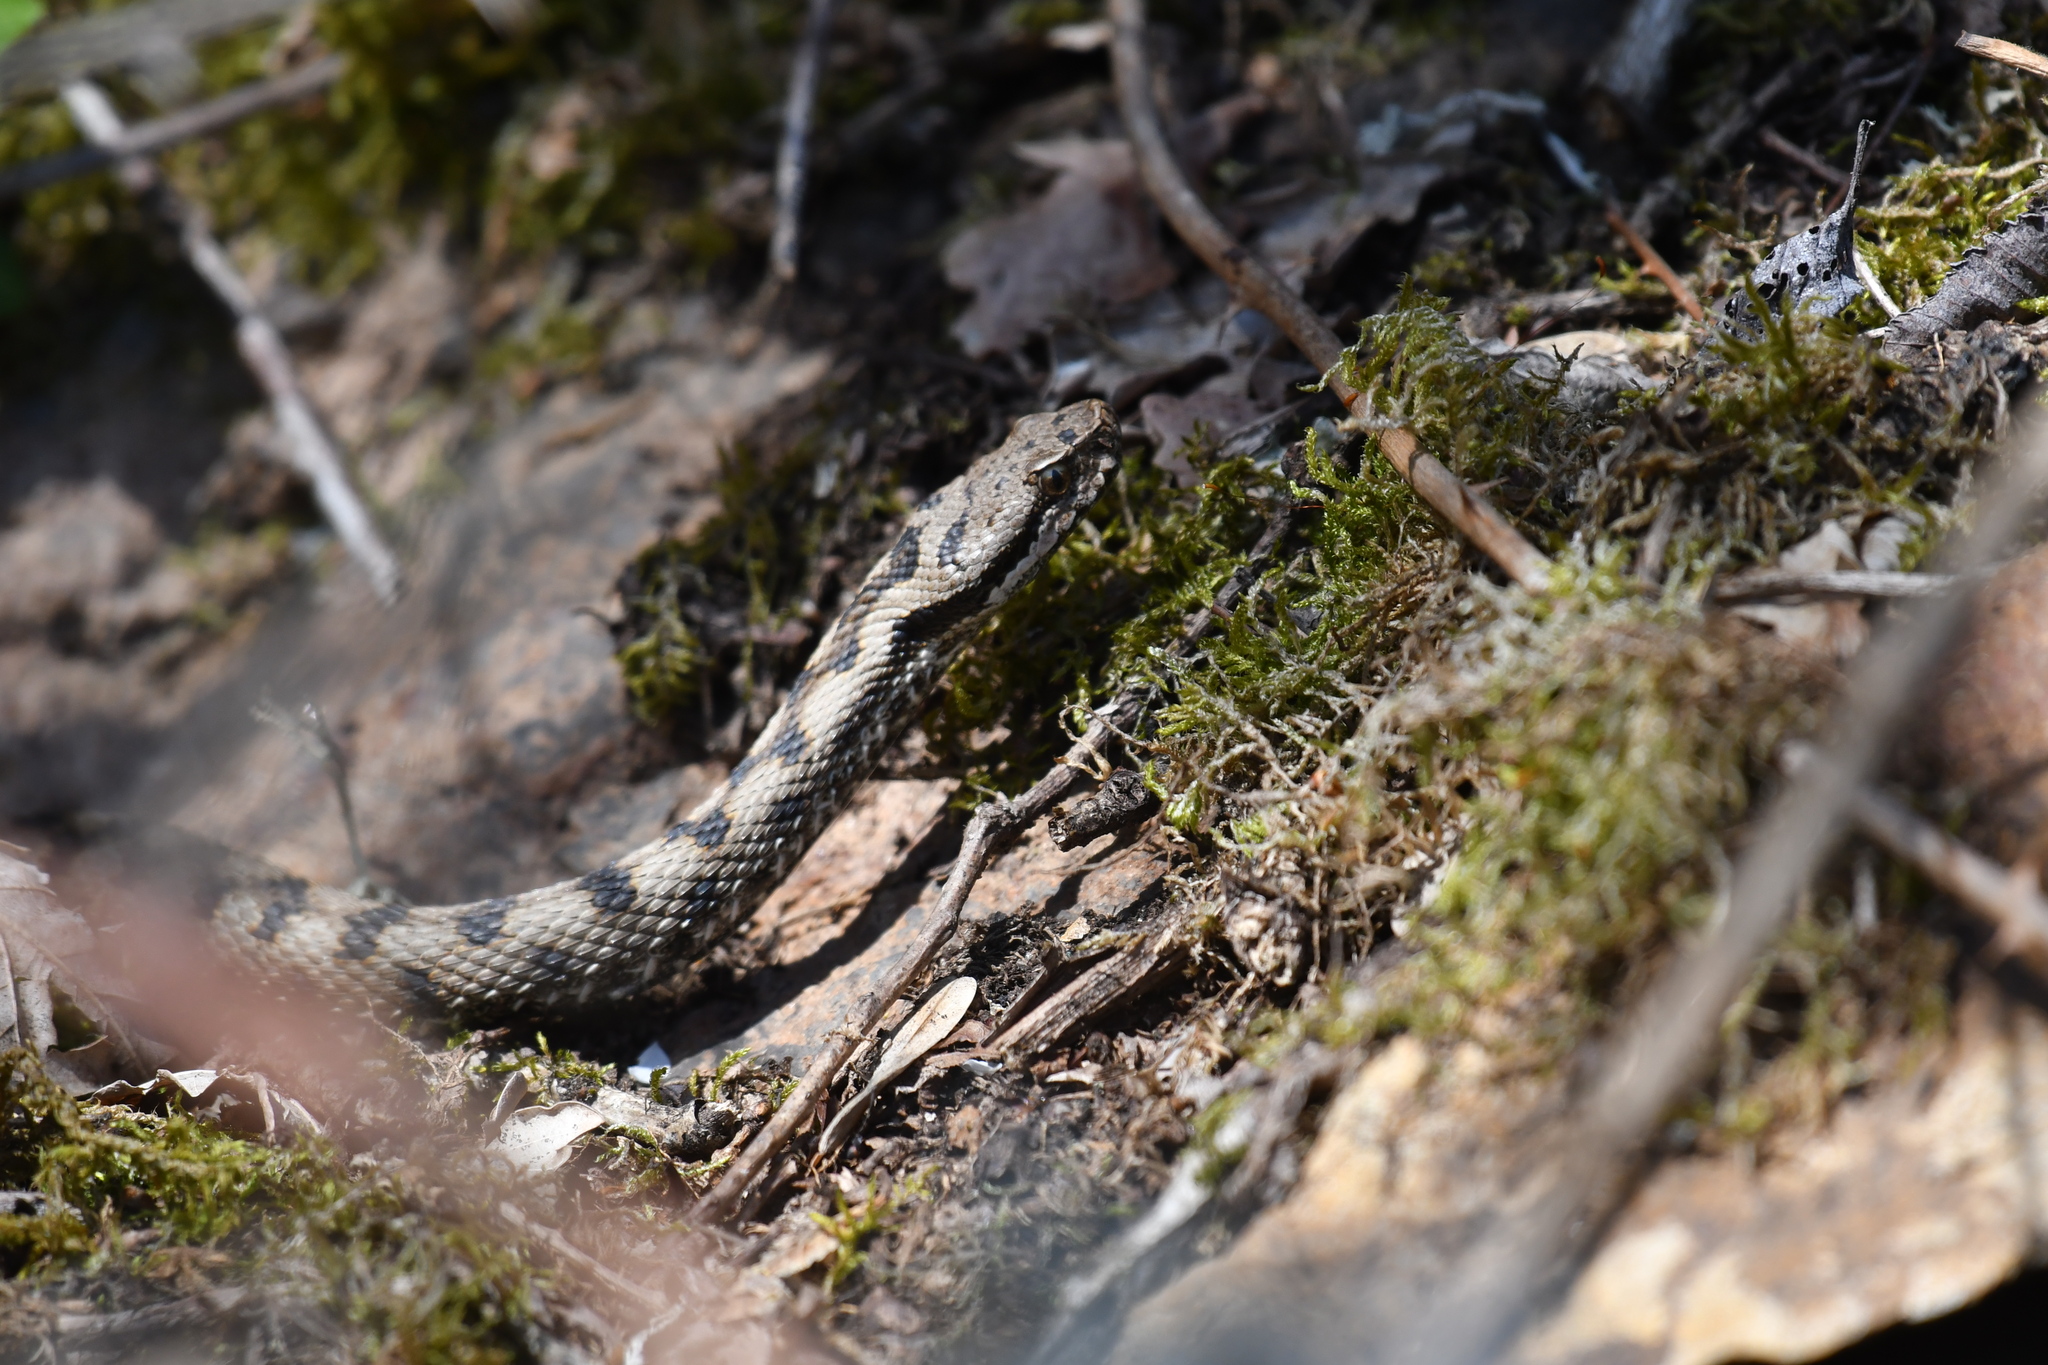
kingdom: Animalia
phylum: Chordata
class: Squamata
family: Viperidae
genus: Vipera
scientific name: Vipera aspis
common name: Asp viper
